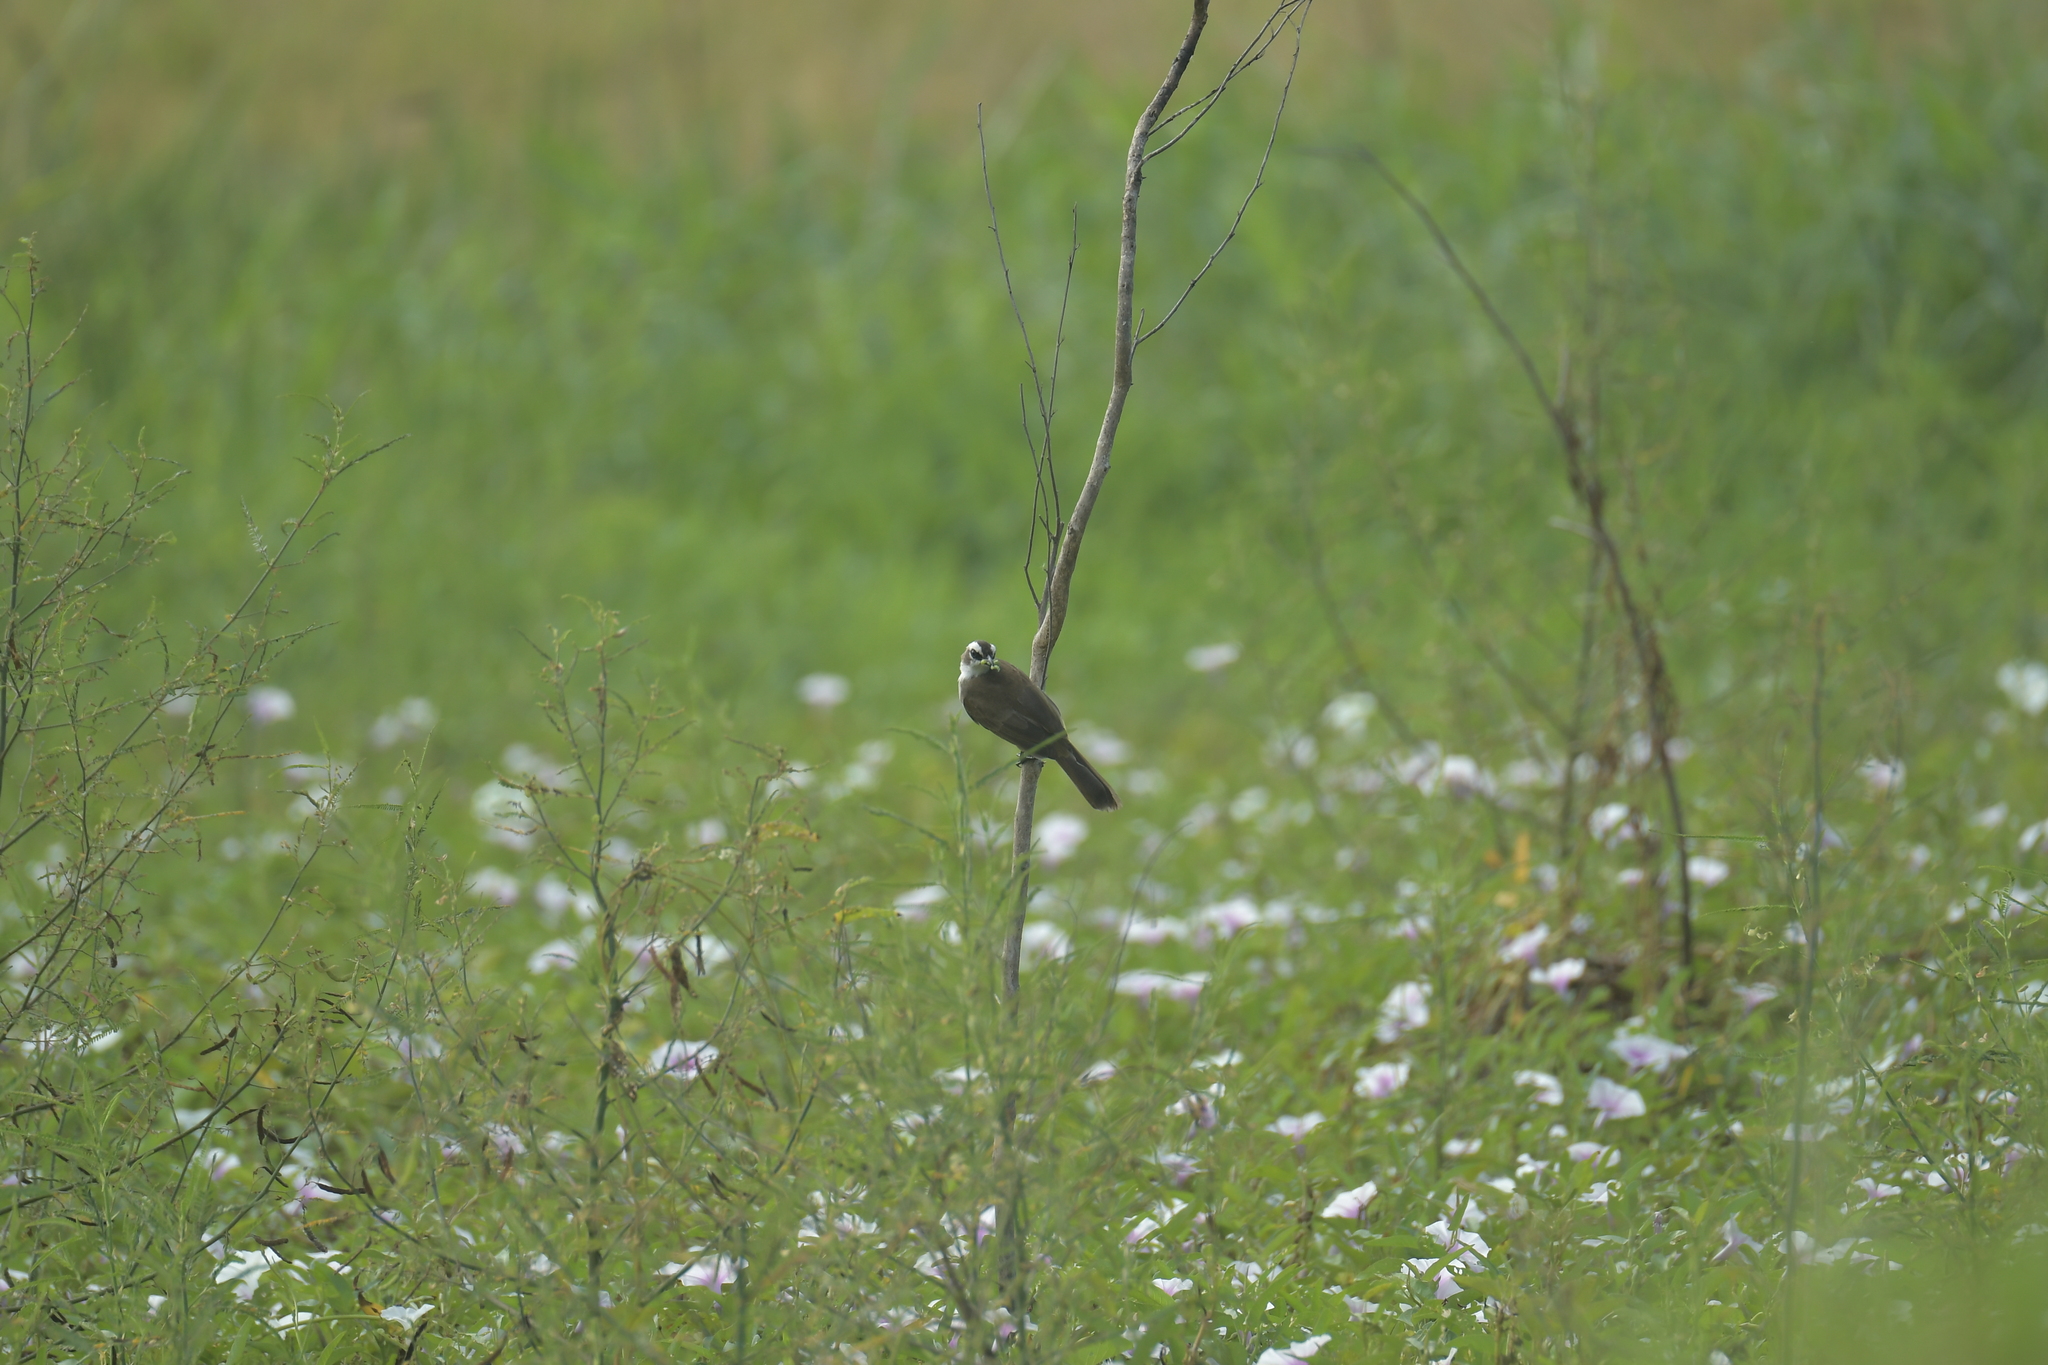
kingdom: Animalia
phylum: Chordata
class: Aves
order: Passeriformes
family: Pycnonotidae
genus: Pycnonotus
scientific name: Pycnonotus goiavier
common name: Yellow-vented bulbul
